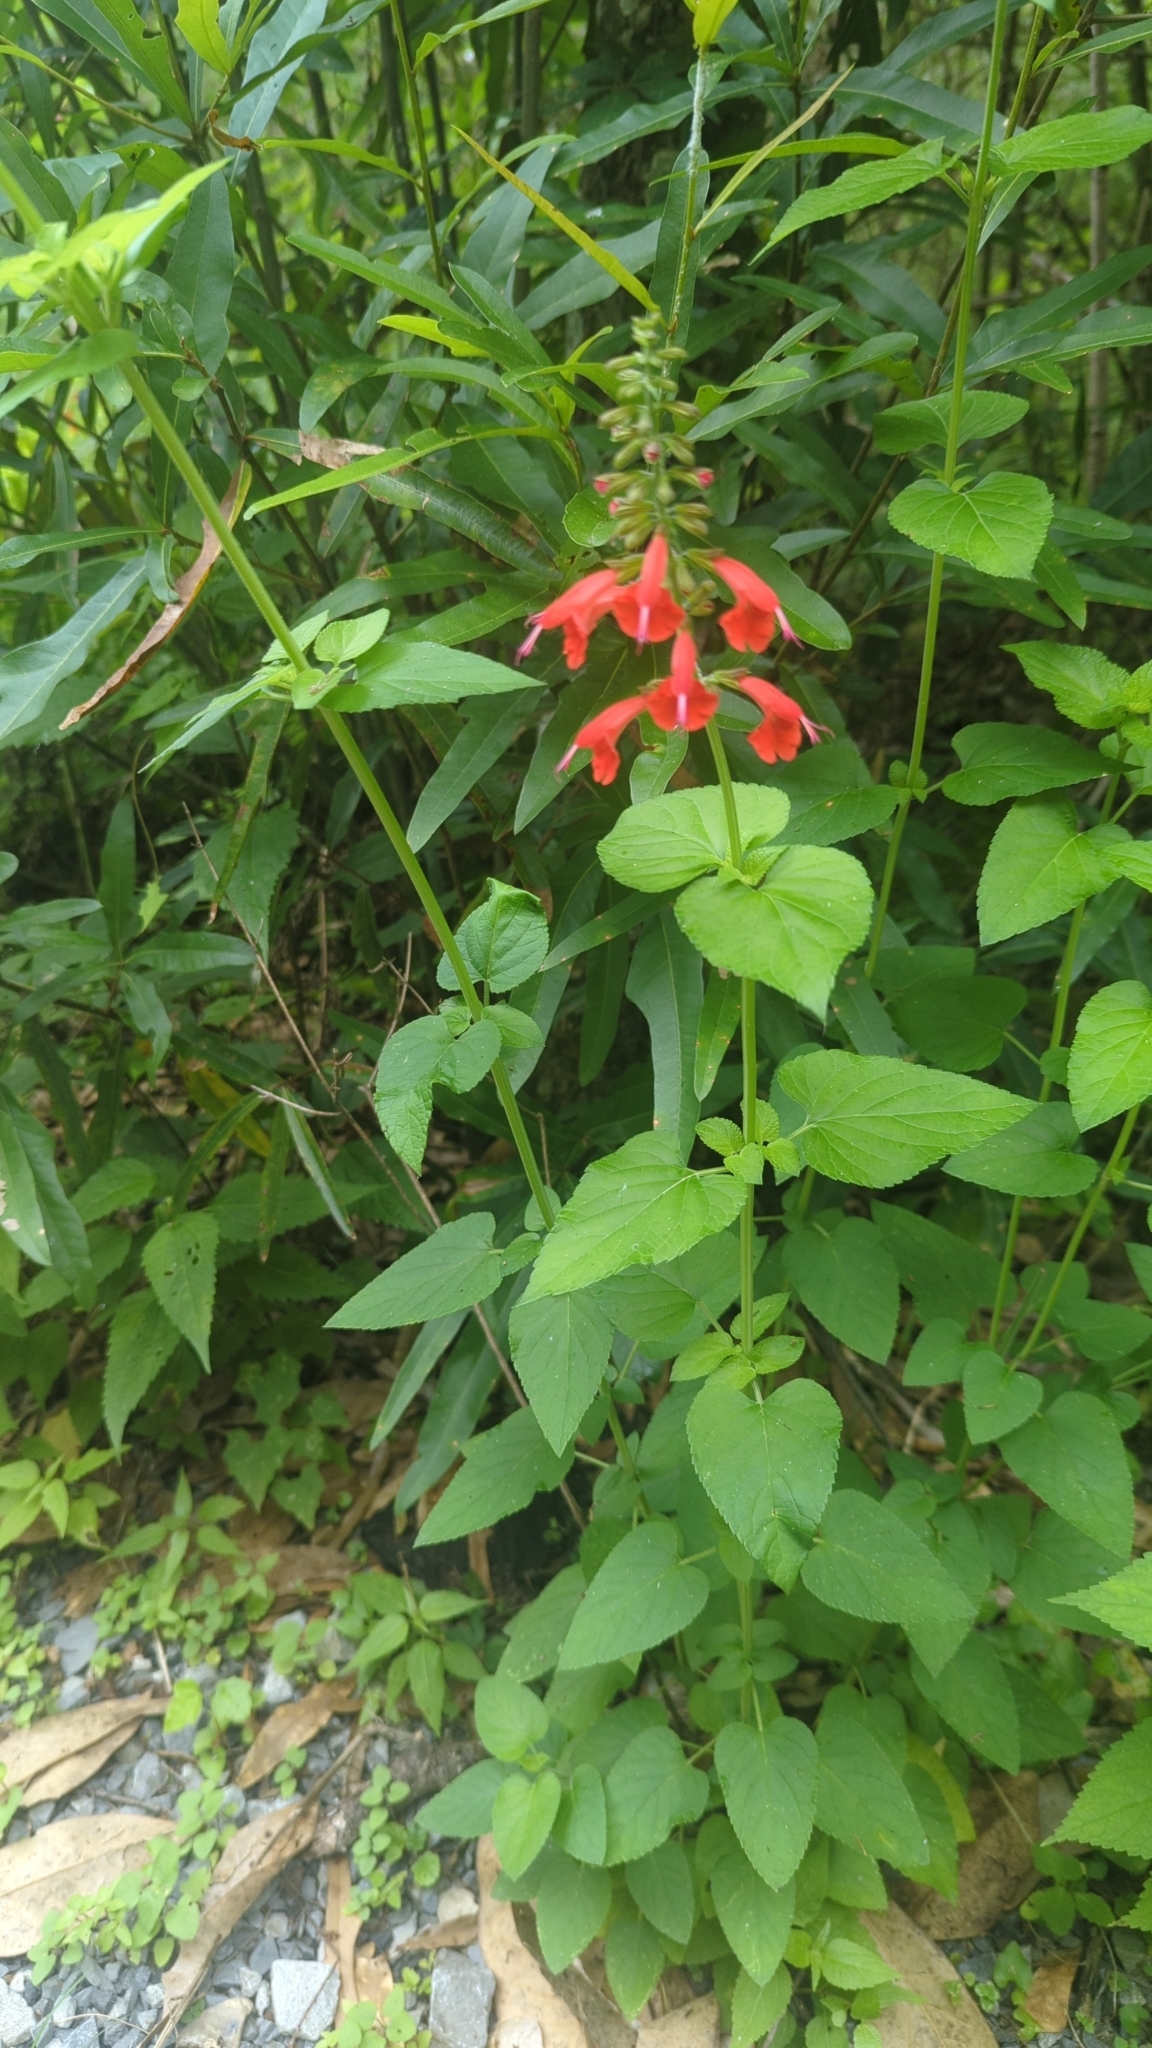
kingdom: Plantae
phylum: Tracheophyta
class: Magnoliopsida
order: Lamiales
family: Lamiaceae
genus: Salvia
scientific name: Salvia coccinea
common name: Blood sage
